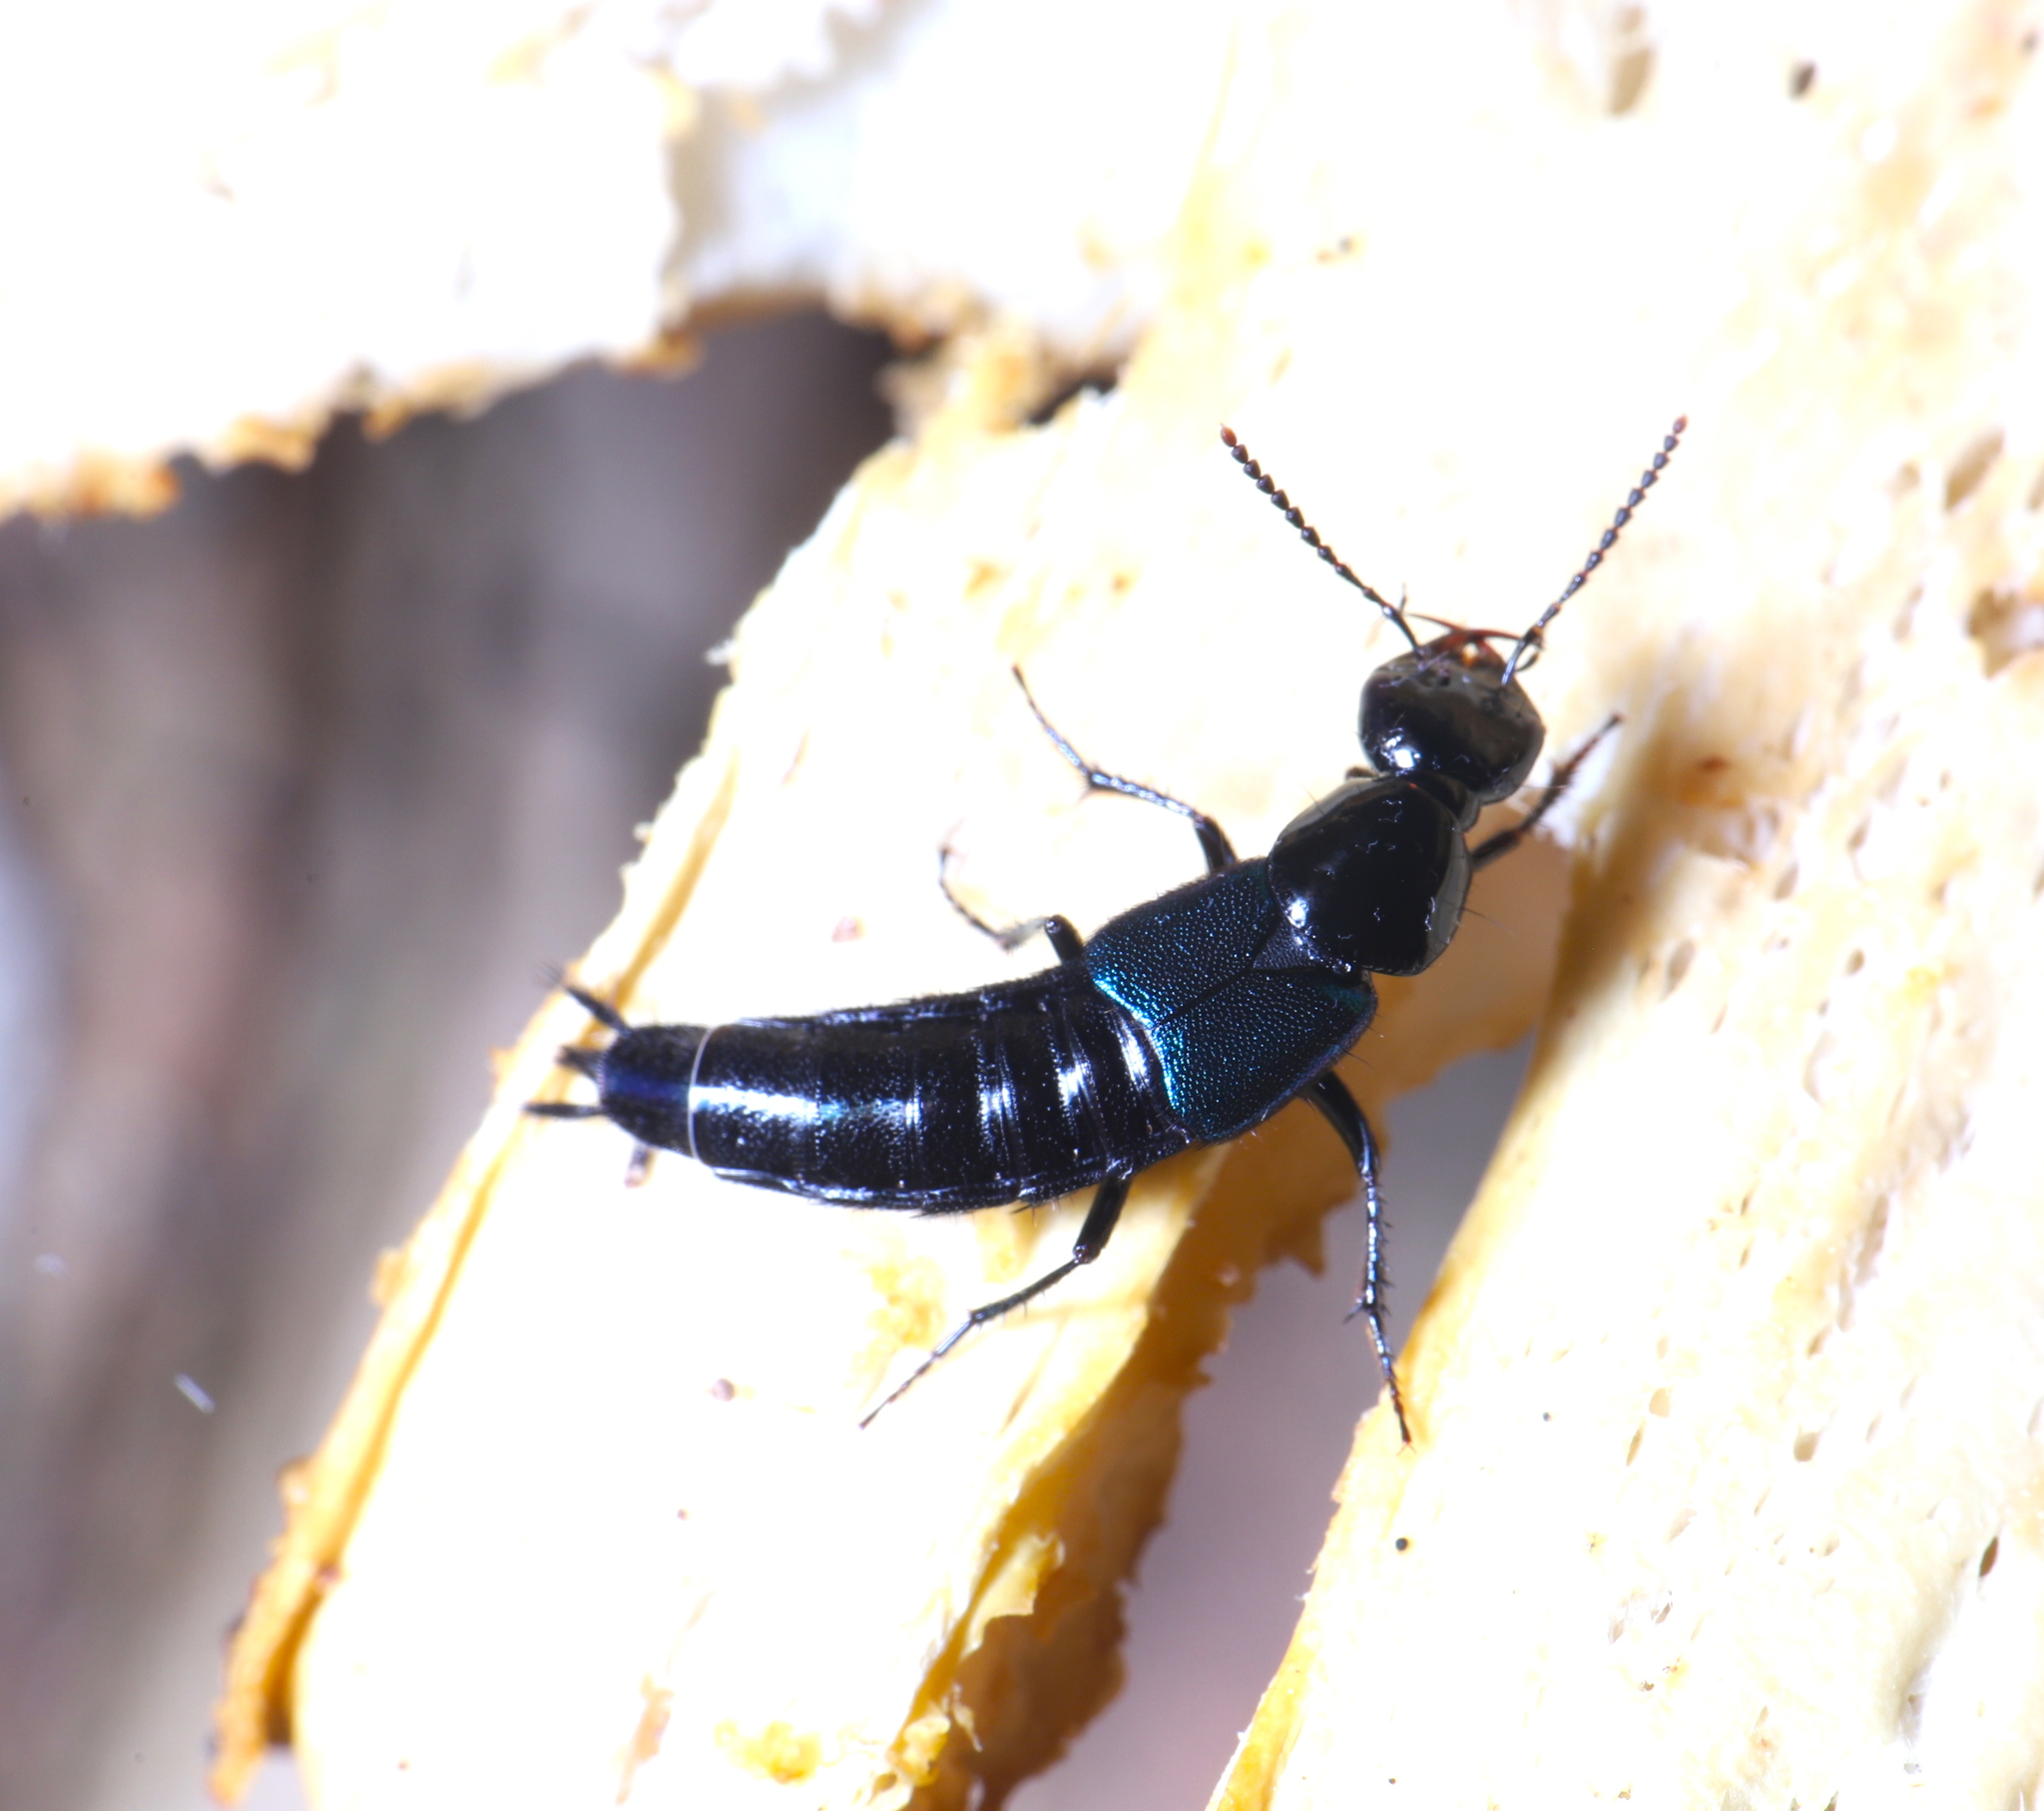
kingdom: Animalia
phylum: Arthropoda
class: Insecta
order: Coleoptera
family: Staphylinidae
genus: Philonthus
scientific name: Philonthus caeruleipennis
